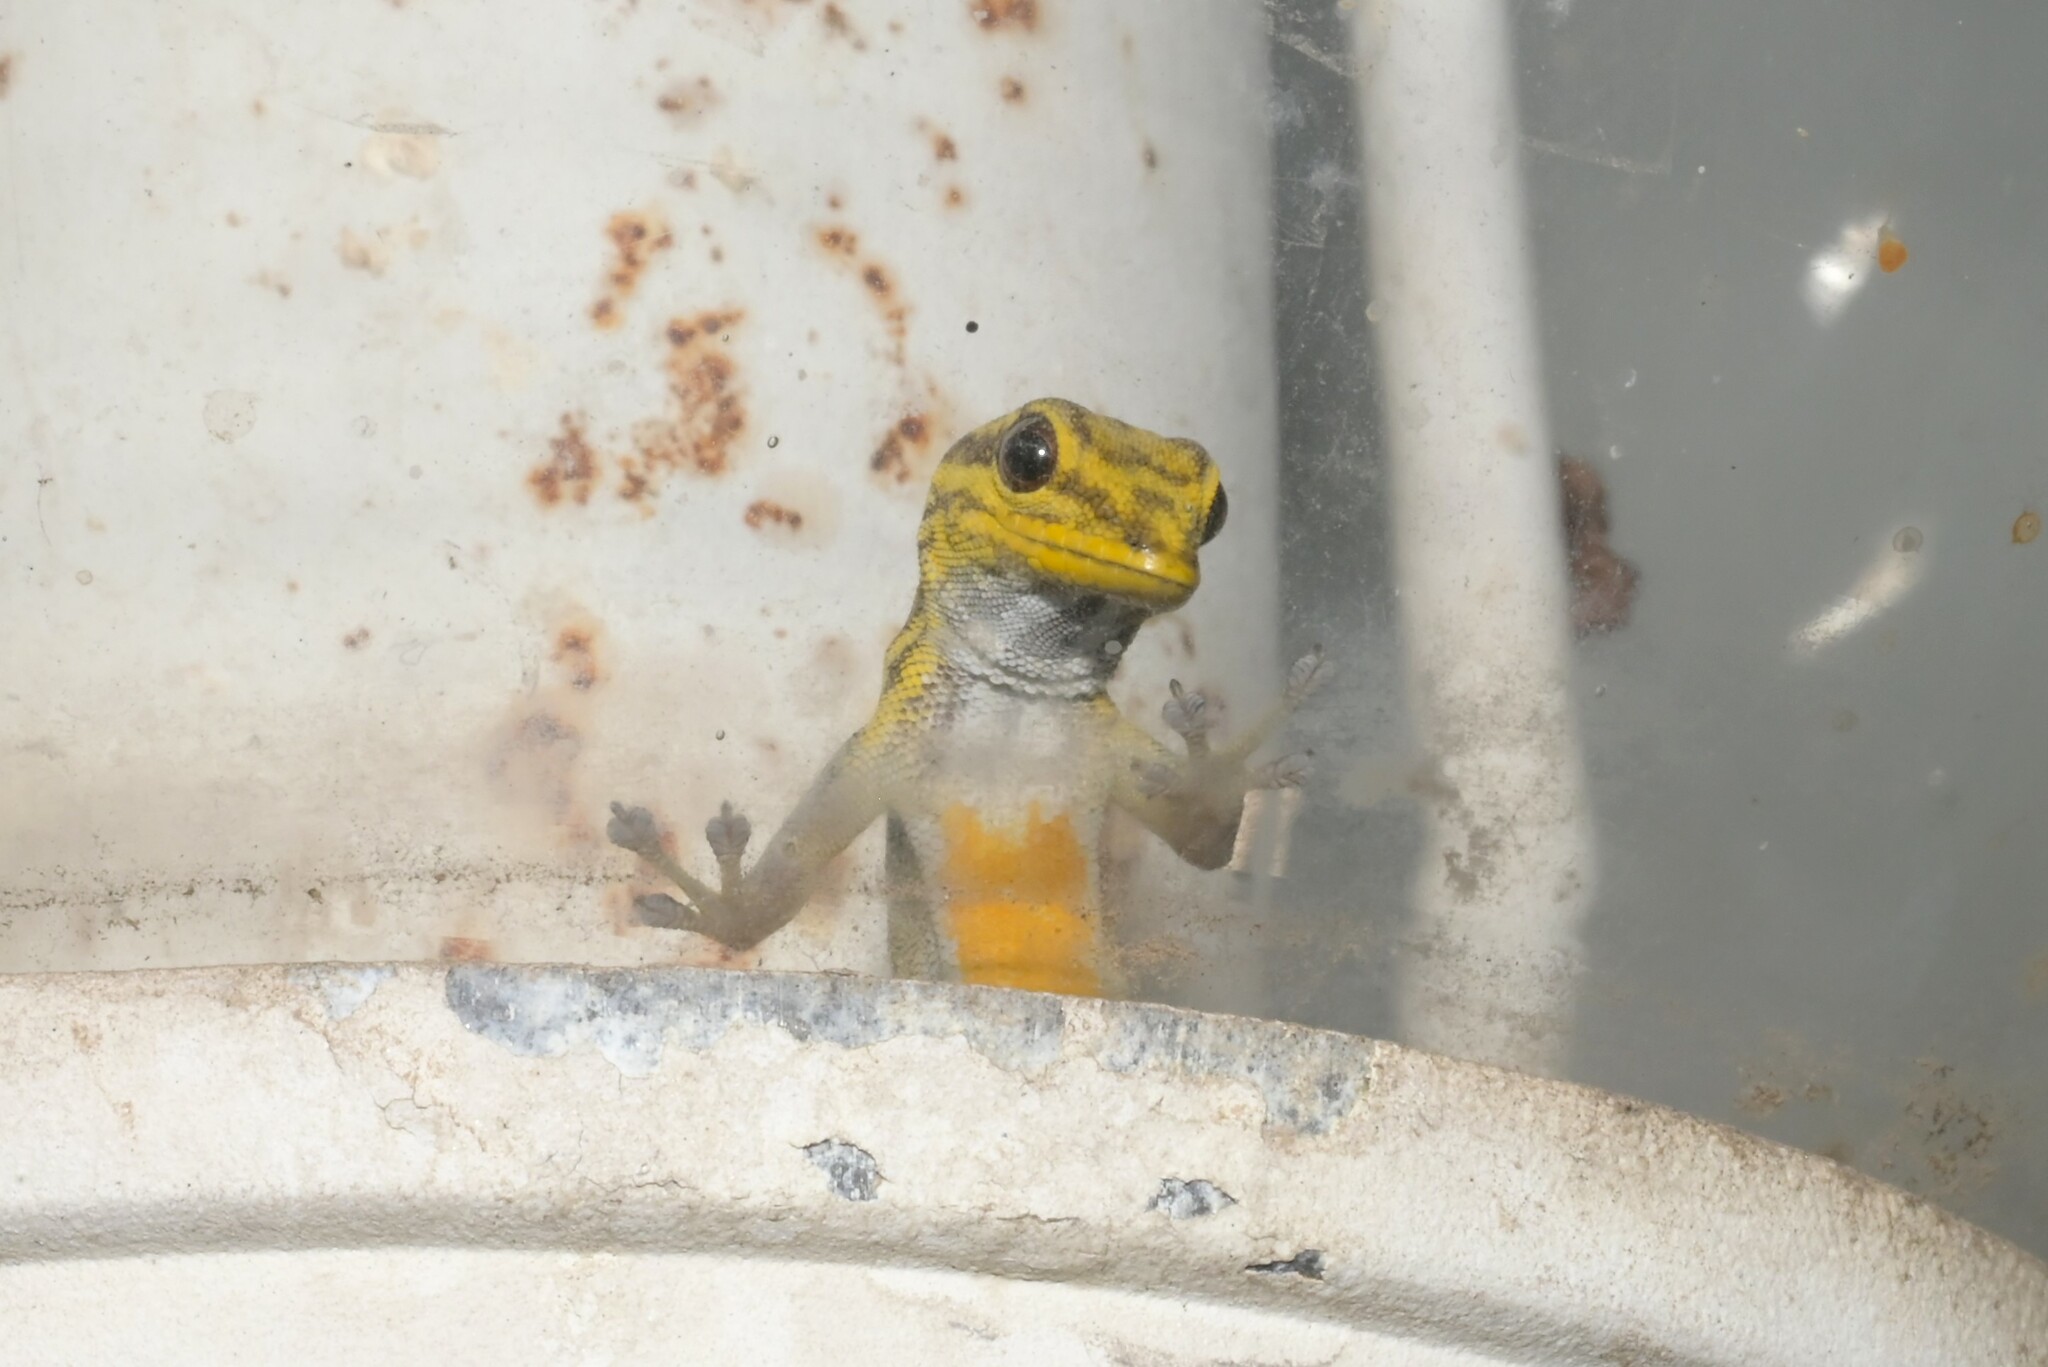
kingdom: Animalia
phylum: Chordata
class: Squamata
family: Gekkonidae
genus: Lygodactylus
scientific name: Lygodactylus picturatus
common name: Painted dwarf gecko
